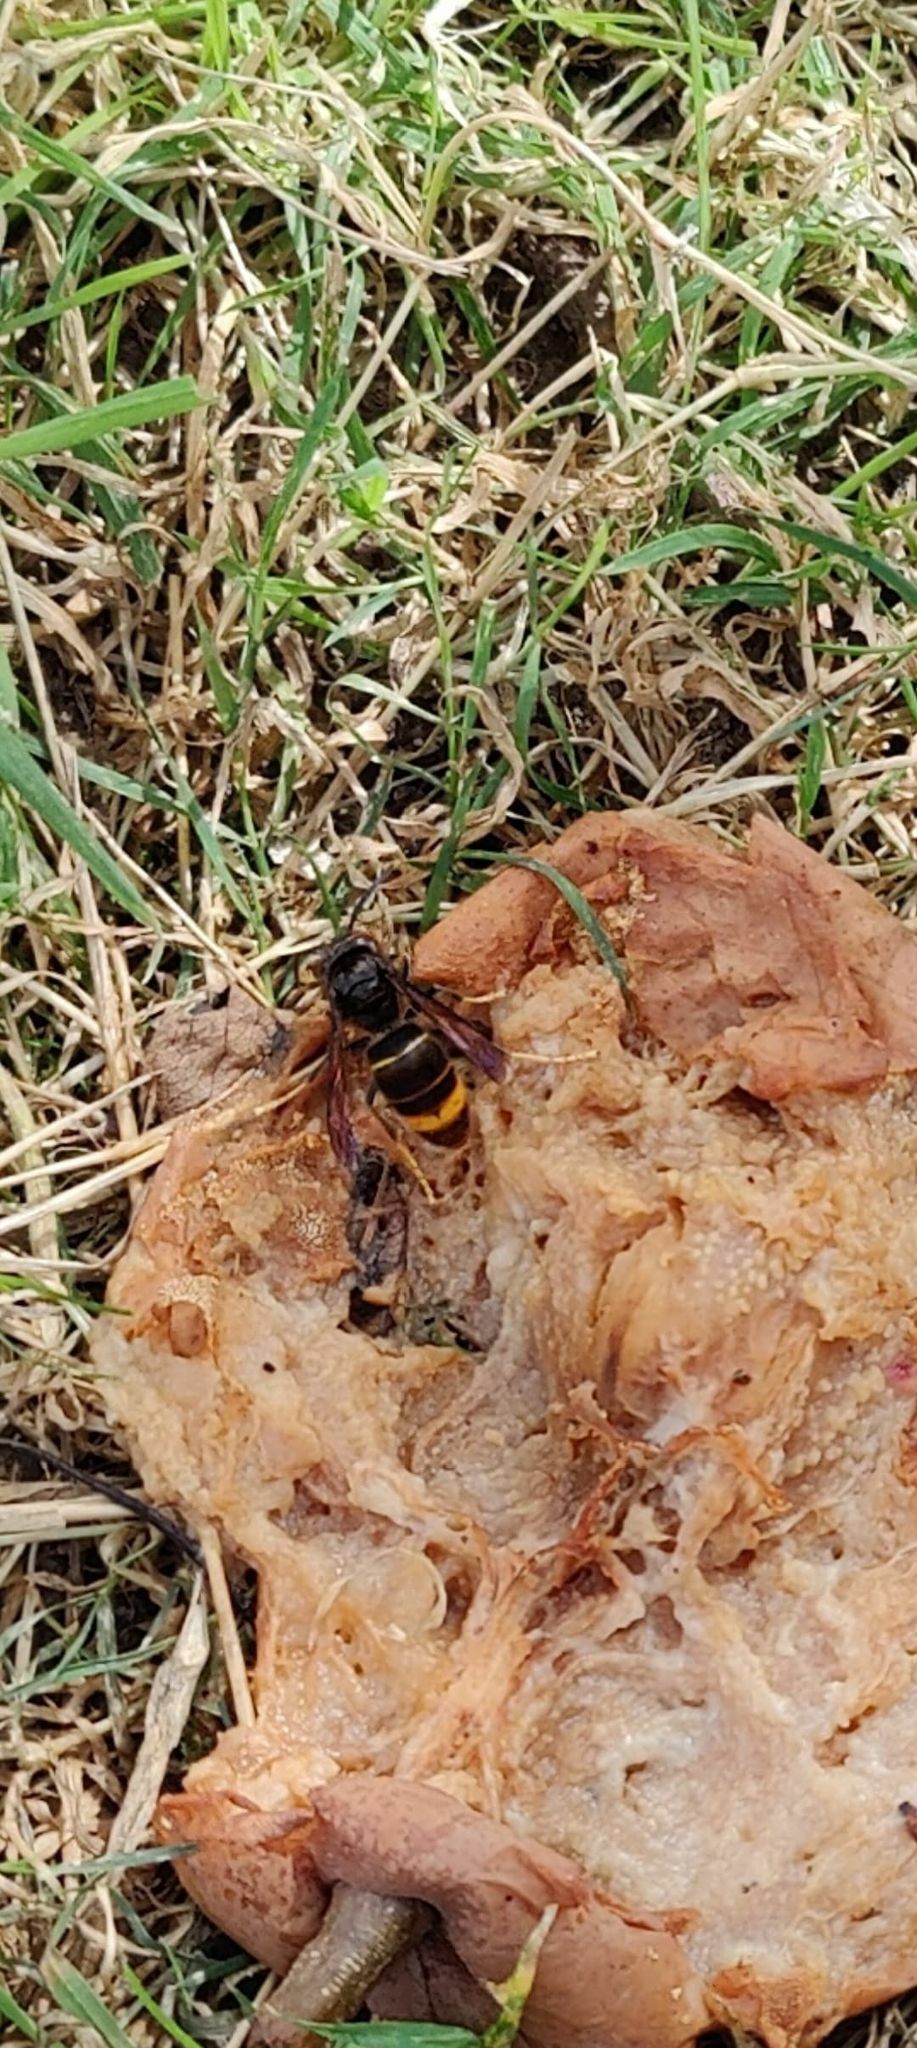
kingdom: Animalia
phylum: Arthropoda
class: Insecta
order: Hymenoptera
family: Vespidae
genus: Vespa
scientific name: Vespa velutina
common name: Asian hornet
